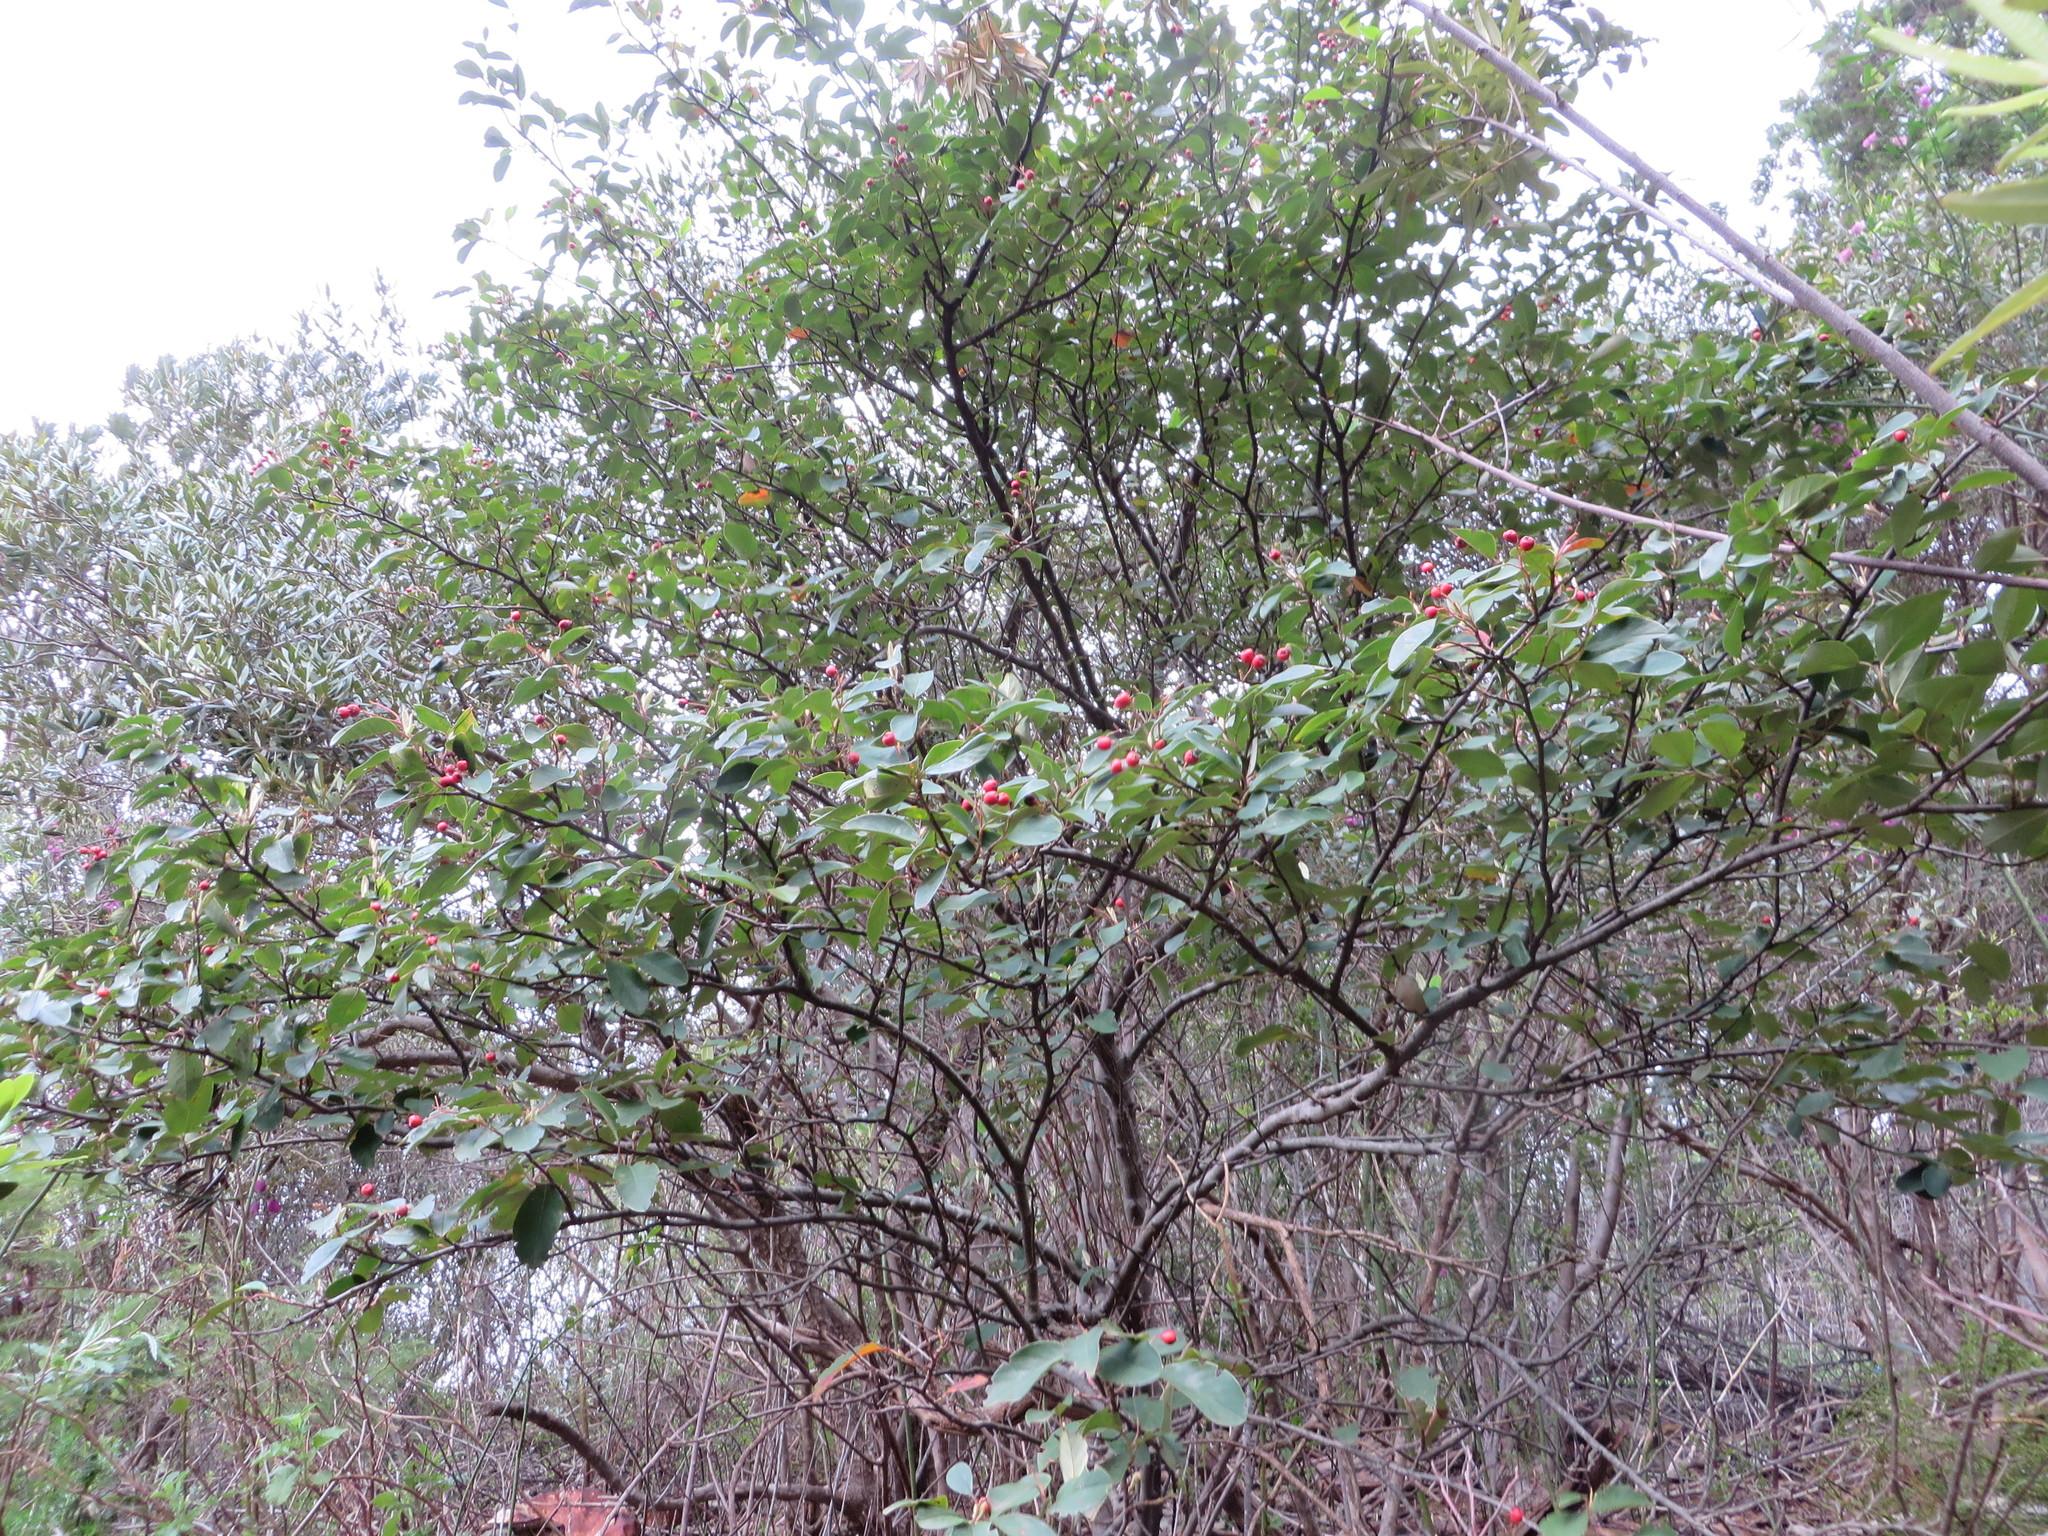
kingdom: Plantae
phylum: Tracheophyta
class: Magnoliopsida
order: Rosales
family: Rosaceae
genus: Cotoneaster
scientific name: Cotoneaster glaucophyllus
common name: Glaucous cotoneaster
